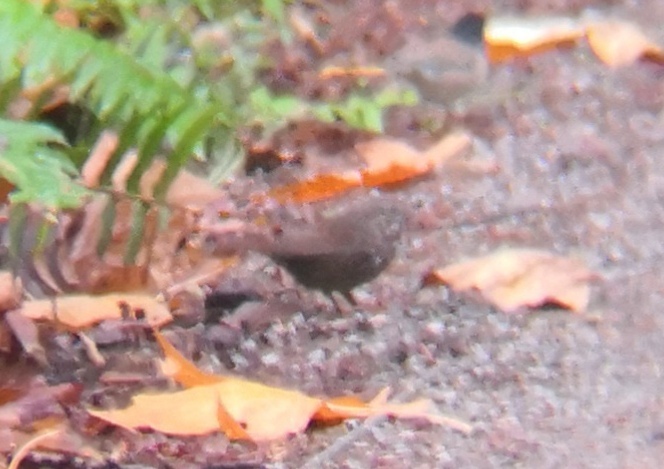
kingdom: Animalia
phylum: Chordata
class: Aves
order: Passeriformes
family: Passerellidae
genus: Passerella
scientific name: Passerella iliaca
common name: Fox sparrow
